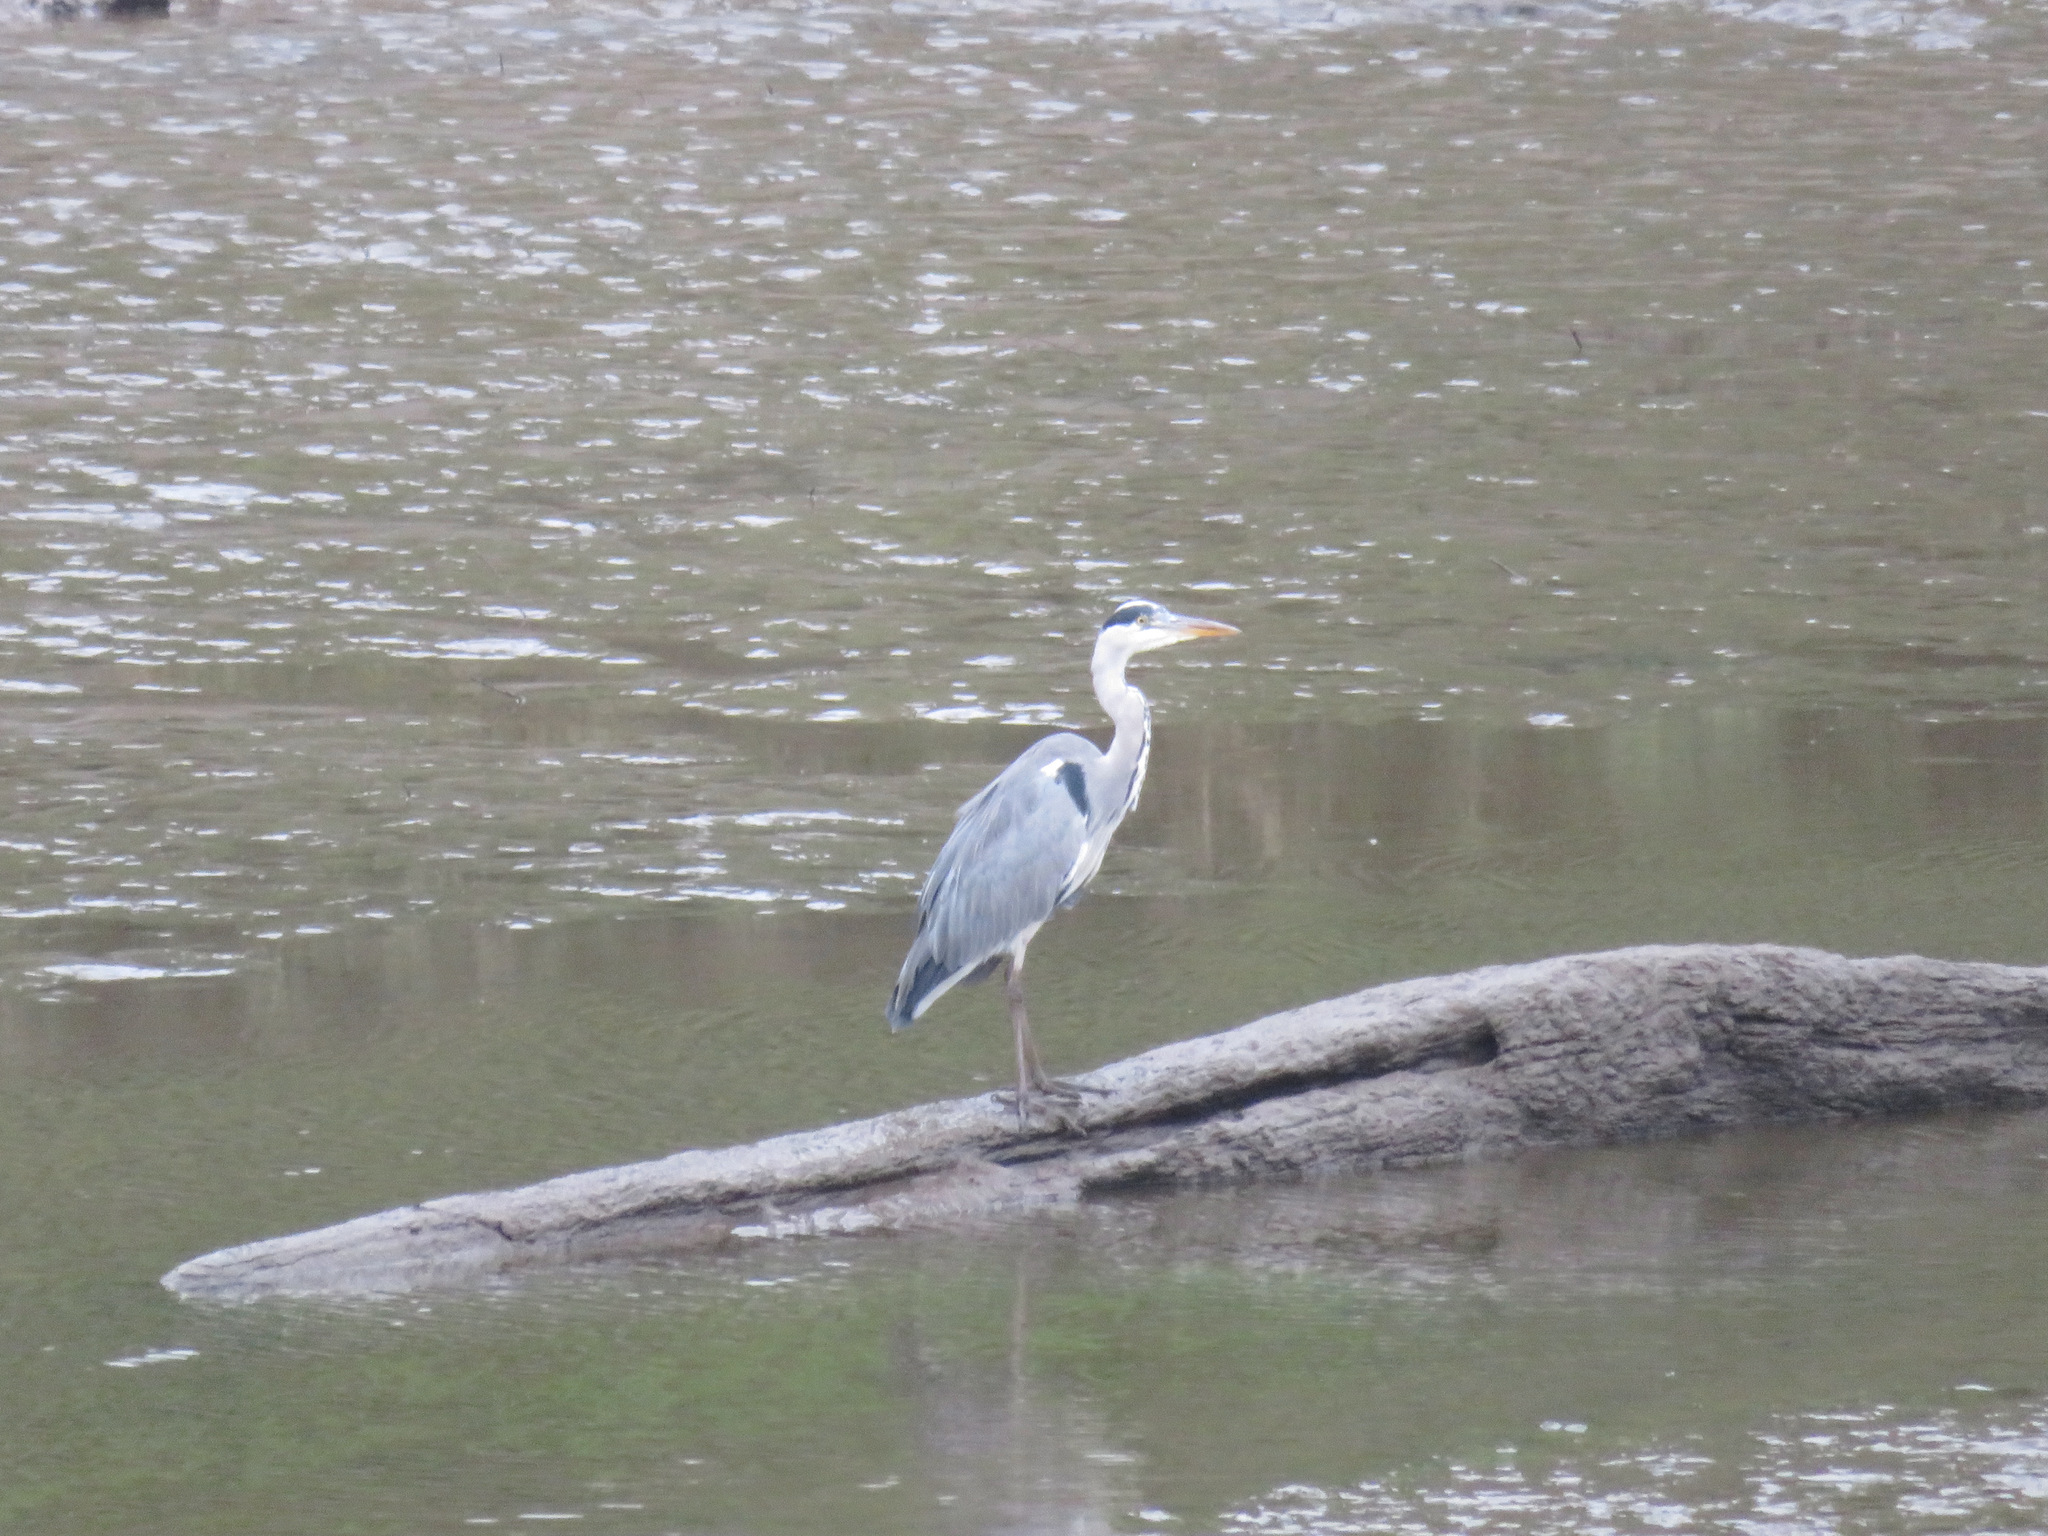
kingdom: Animalia
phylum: Chordata
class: Aves
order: Pelecaniformes
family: Ardeidae
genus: Ardea
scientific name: Ardea cinerea
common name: Grey heron
